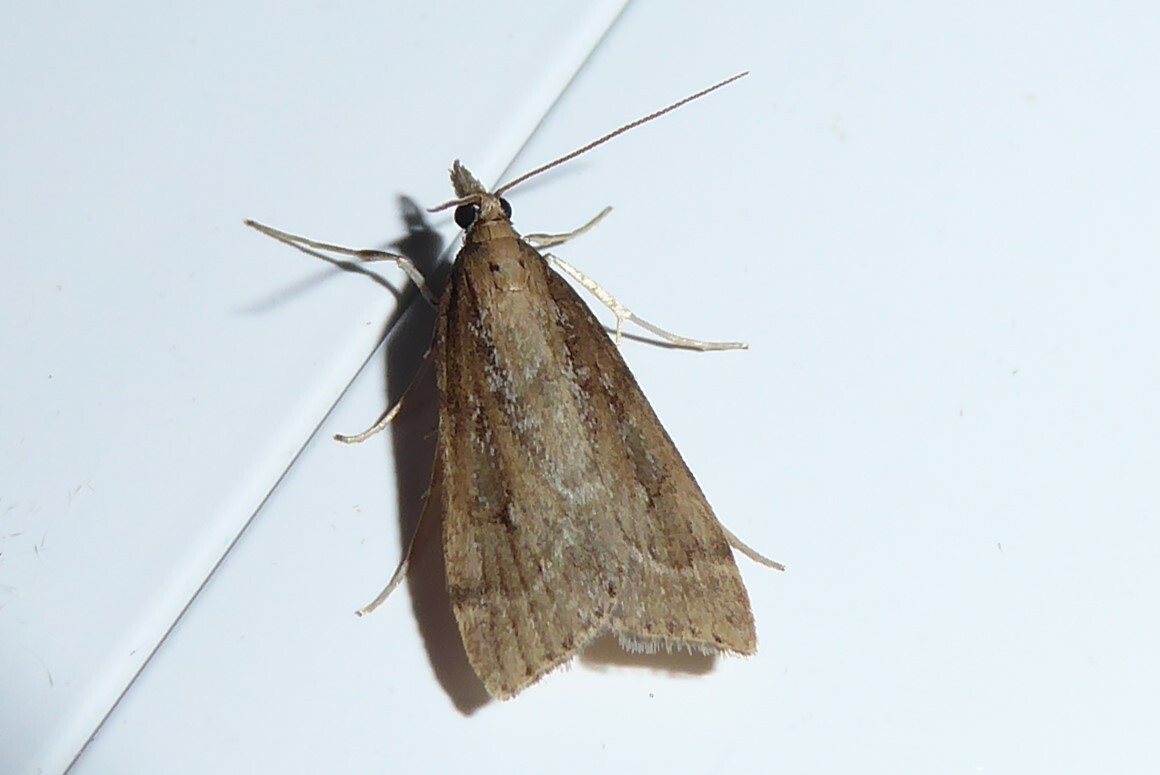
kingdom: Animalia
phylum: Arthropoda
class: Insecta
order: Lepidoptera
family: Crambidae
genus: Eudonia
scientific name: Eudonia octophora
